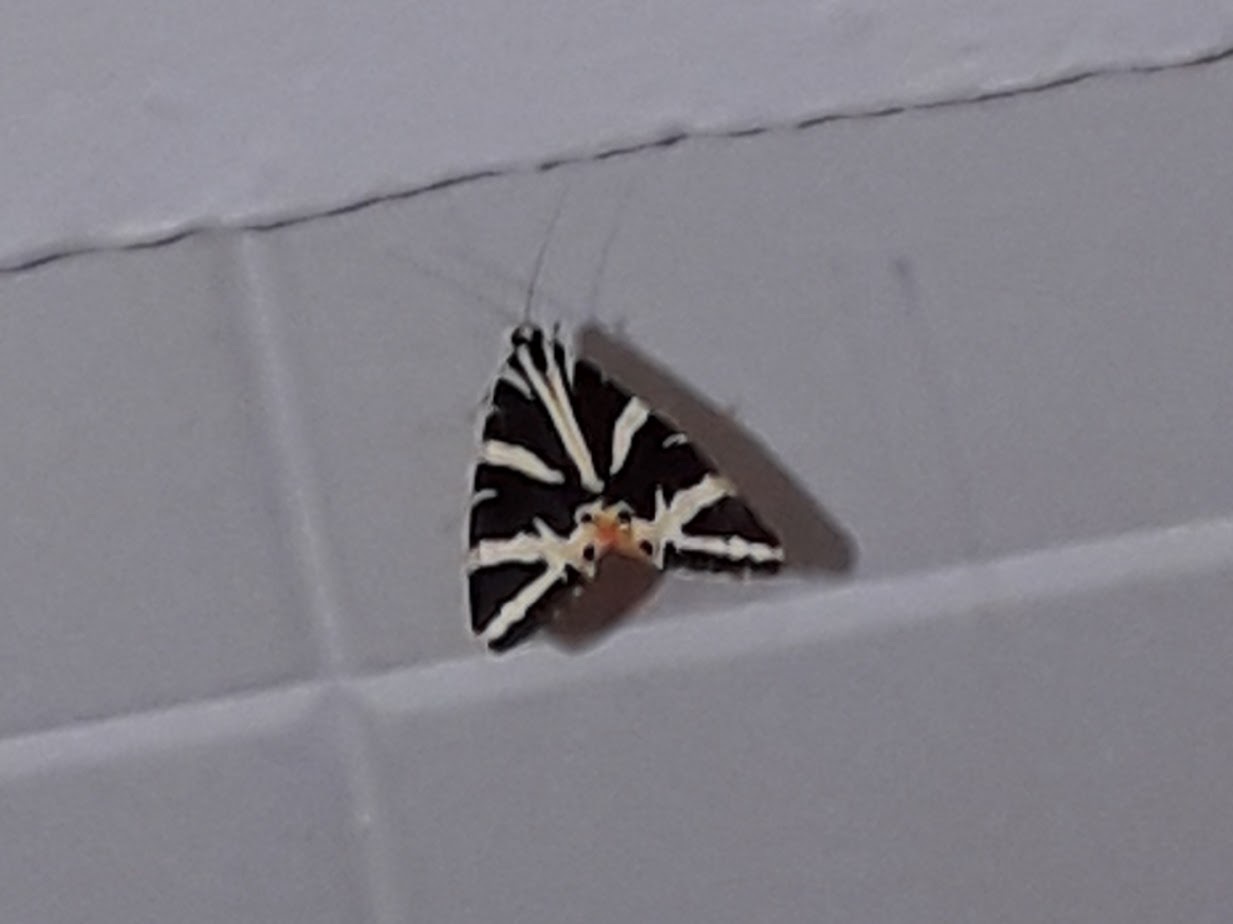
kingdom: Animalia
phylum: Arthropoda
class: Insecta
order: Lepidoptera
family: Erebidae
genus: Euplagia
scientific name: Euplagia quadripunctaria
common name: Jersey tiger
